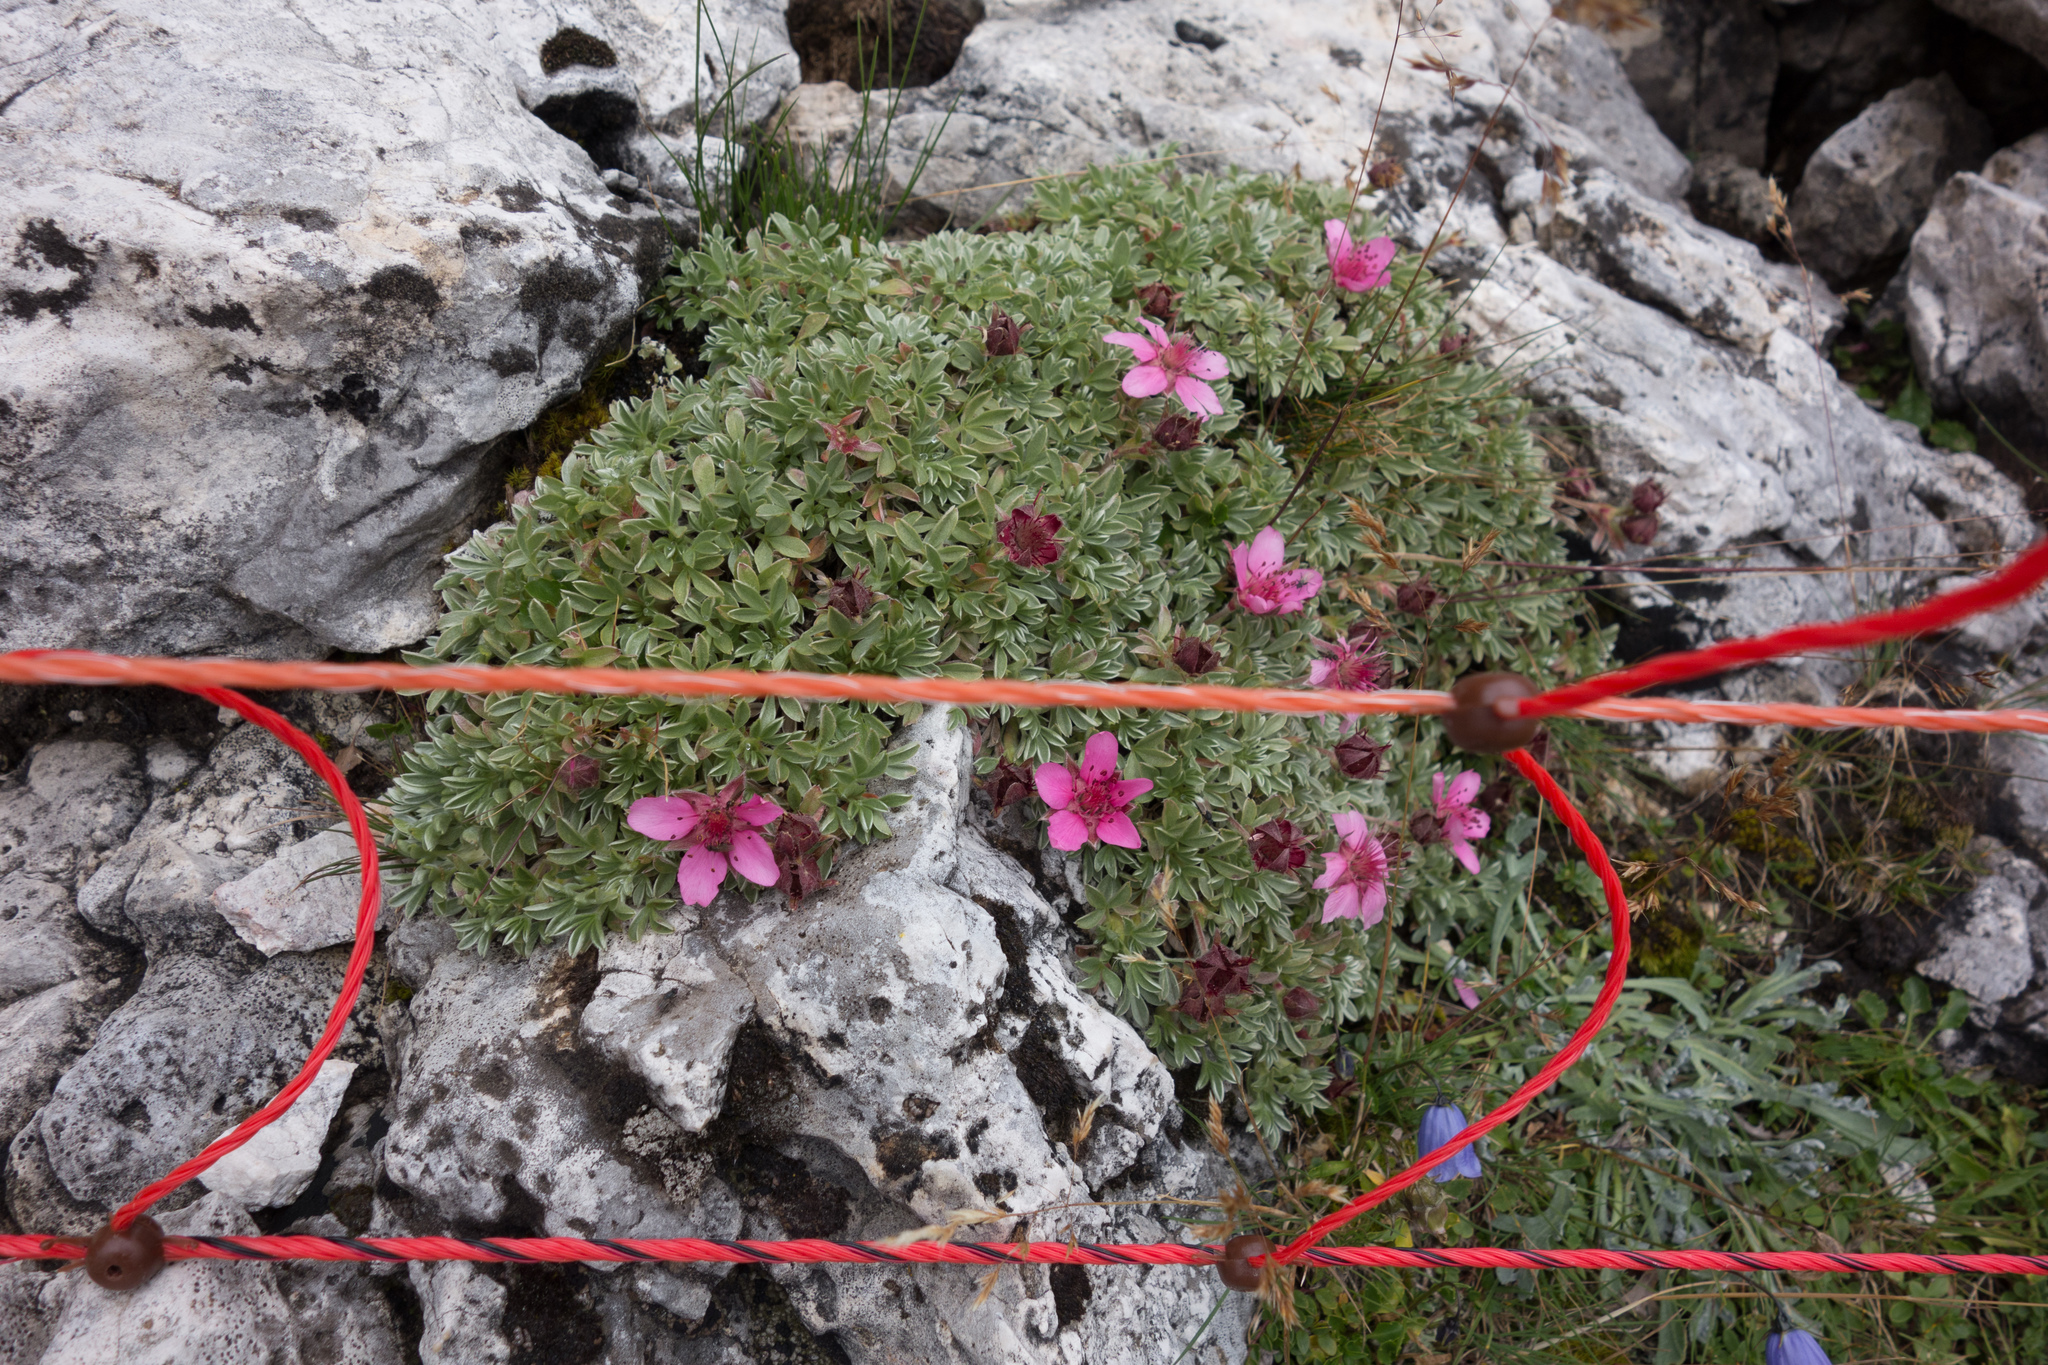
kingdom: Plantae
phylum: Tracheophyta
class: Magnoliopsida
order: Rosales
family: Rosaceae
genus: Potentilla
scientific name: Potentilla nitida
